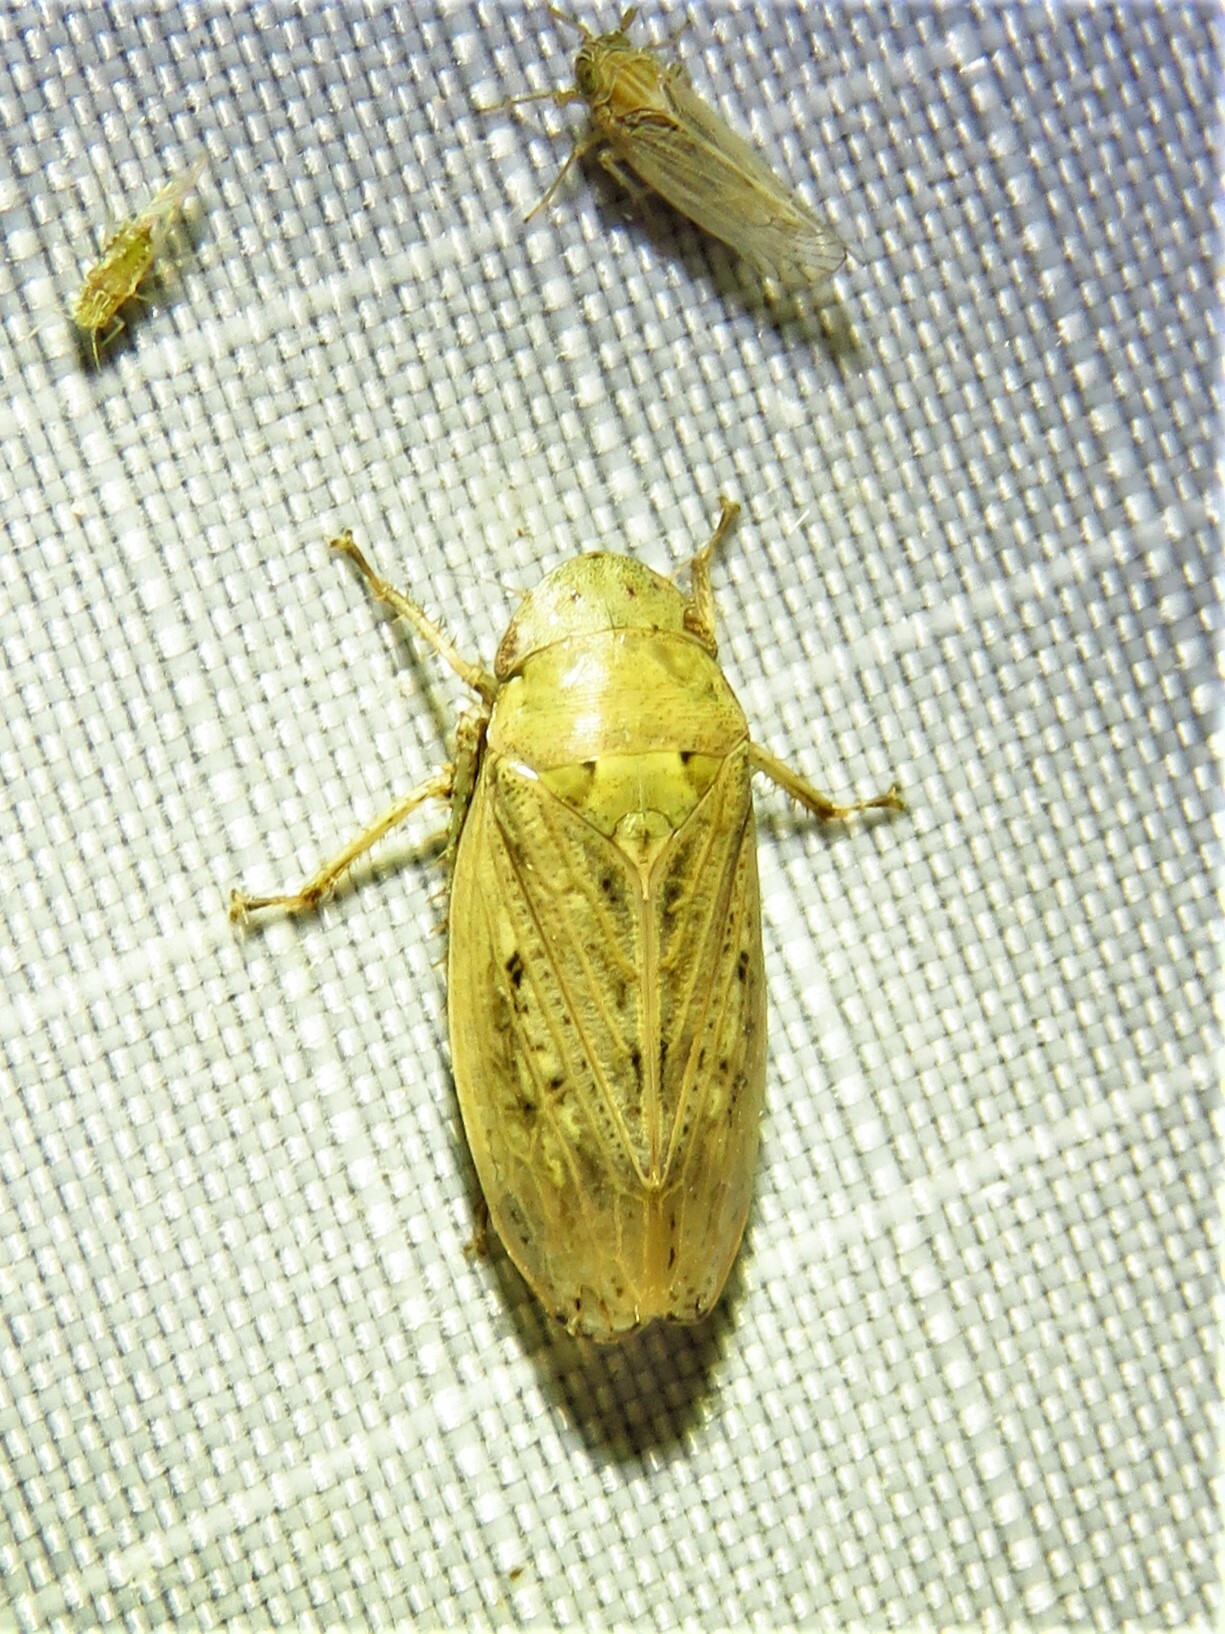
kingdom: Animalia
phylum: Arthropoda
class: Insecta
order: Hemiptera
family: Cicadellidae
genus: Negosiana
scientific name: Negosiana dualis
